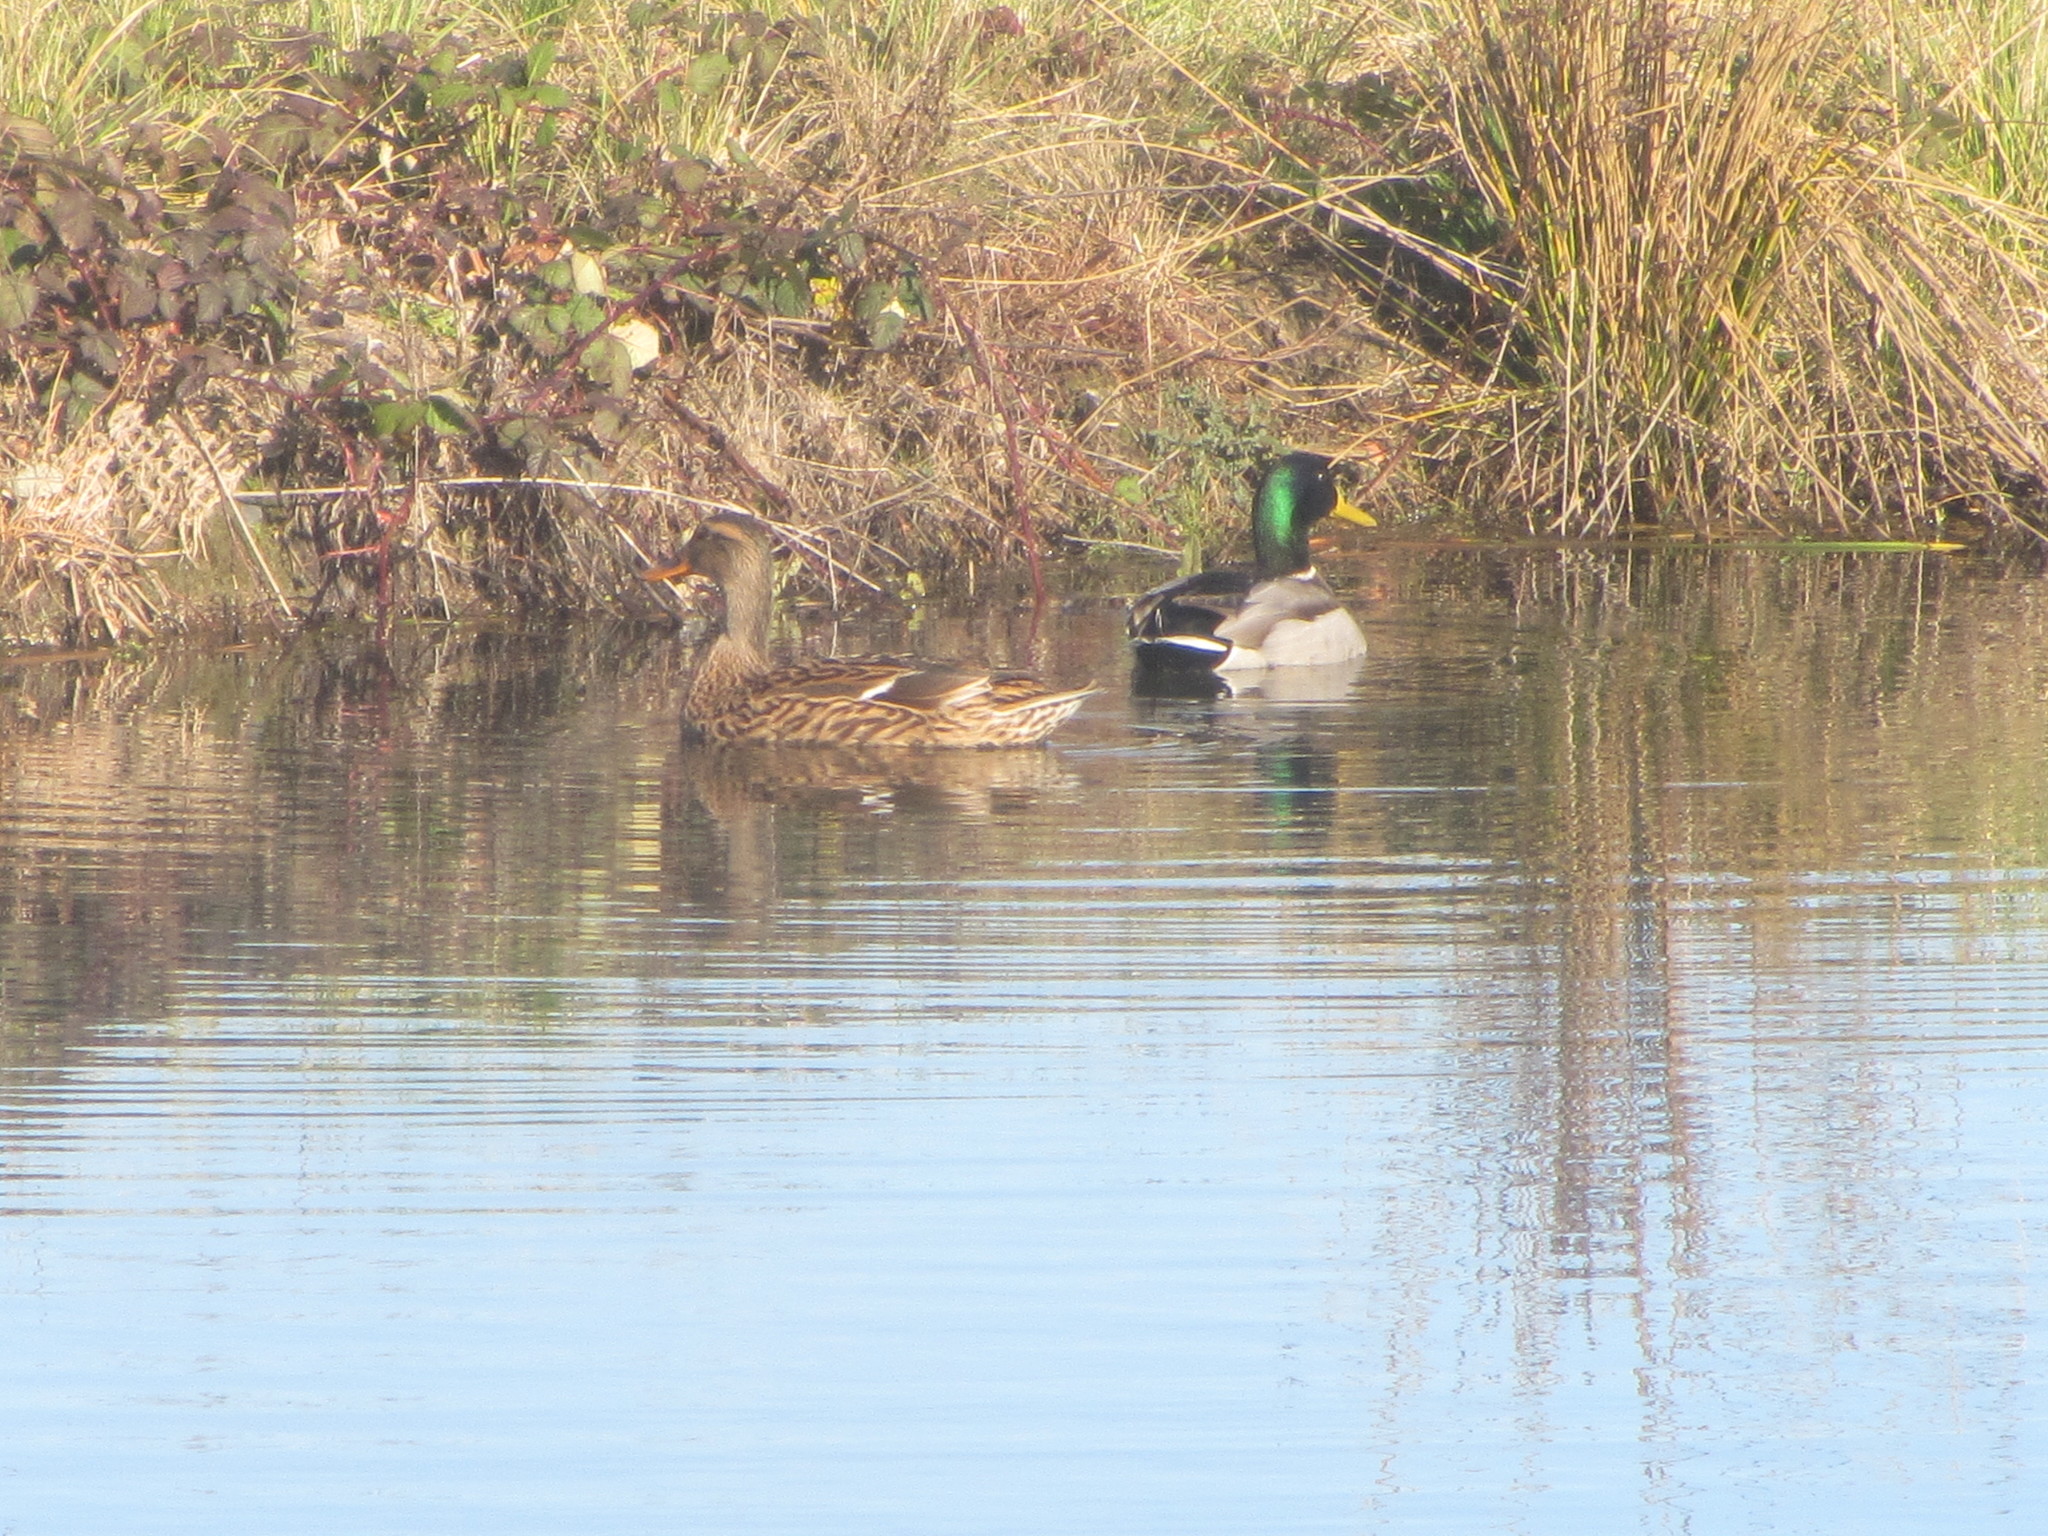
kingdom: Animalia
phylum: Chordata
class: Aves
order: Anseriformes
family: Anatidae
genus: Anas
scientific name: Anas platyrhynchos
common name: Mallard
